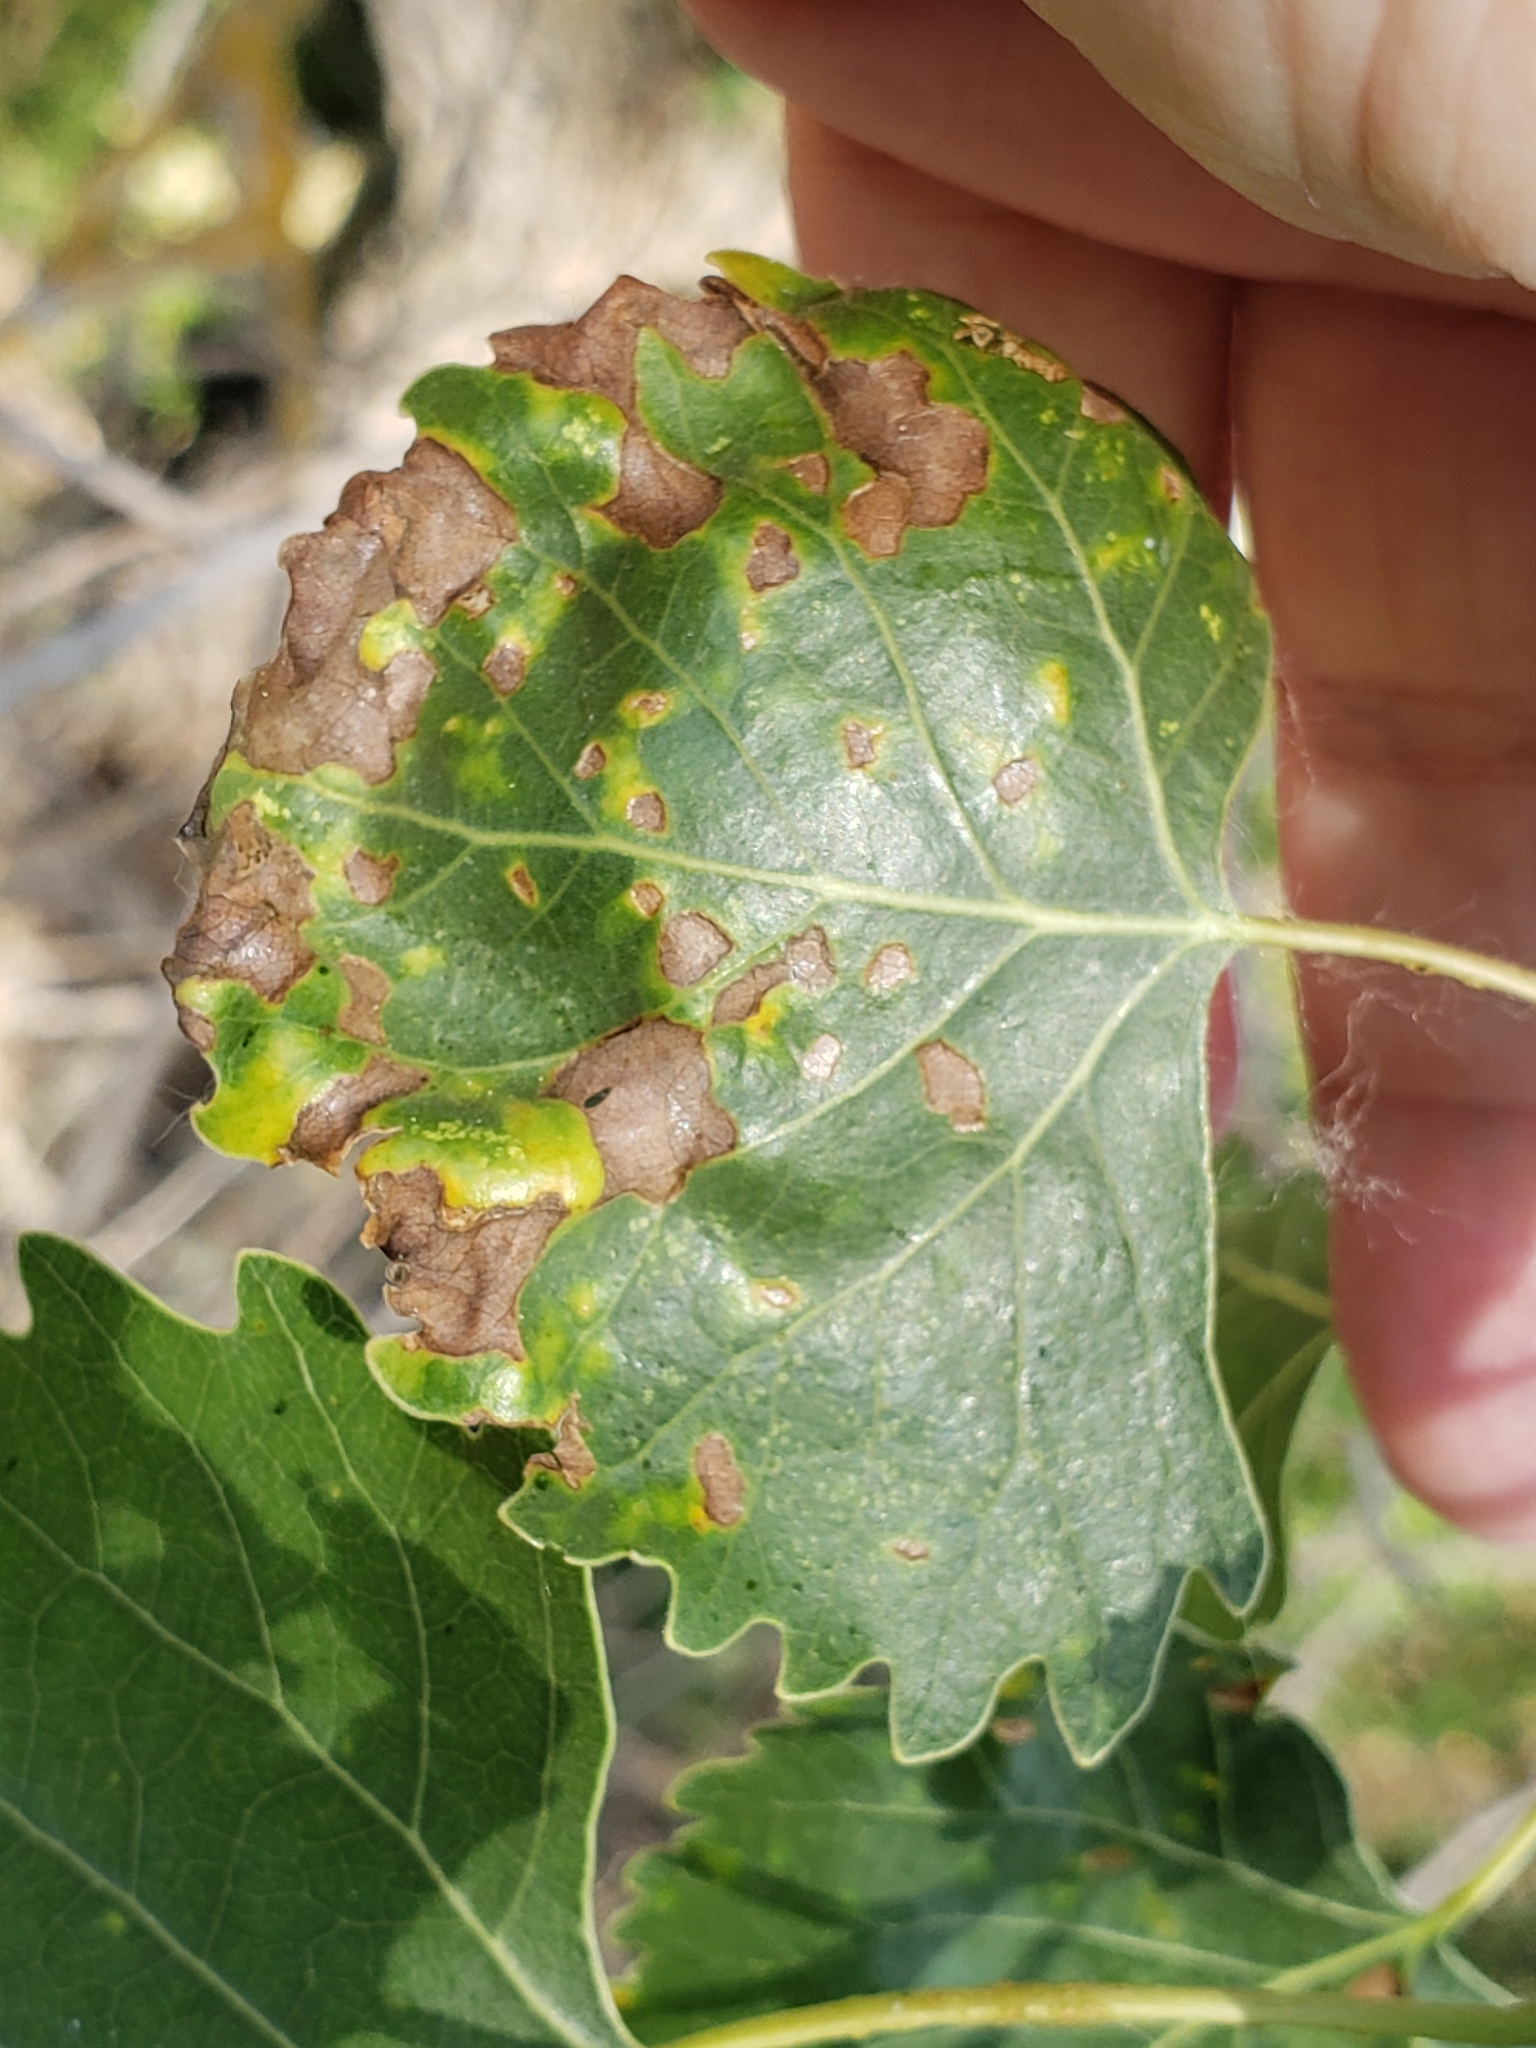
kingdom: Fungi
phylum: Ascomycota
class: Taphrinomycetes
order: Taphrinales
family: Taphrinaceae
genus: Taphrina
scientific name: Taphrina populi-salicis
